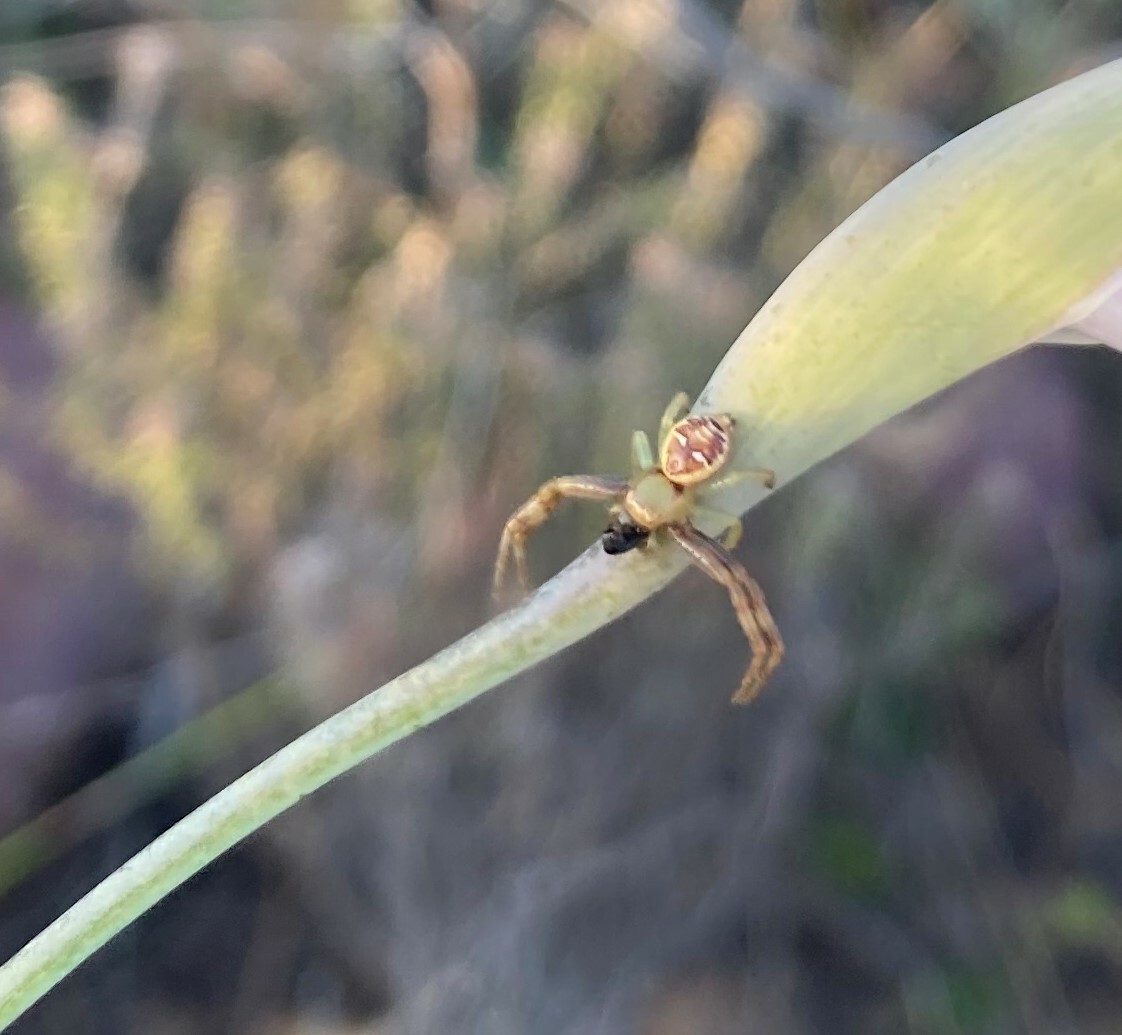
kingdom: Animalia
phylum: Arthropoda
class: Arachnida
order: Araneae
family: Thomisidae
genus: Synema
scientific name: Synema imitatrix
